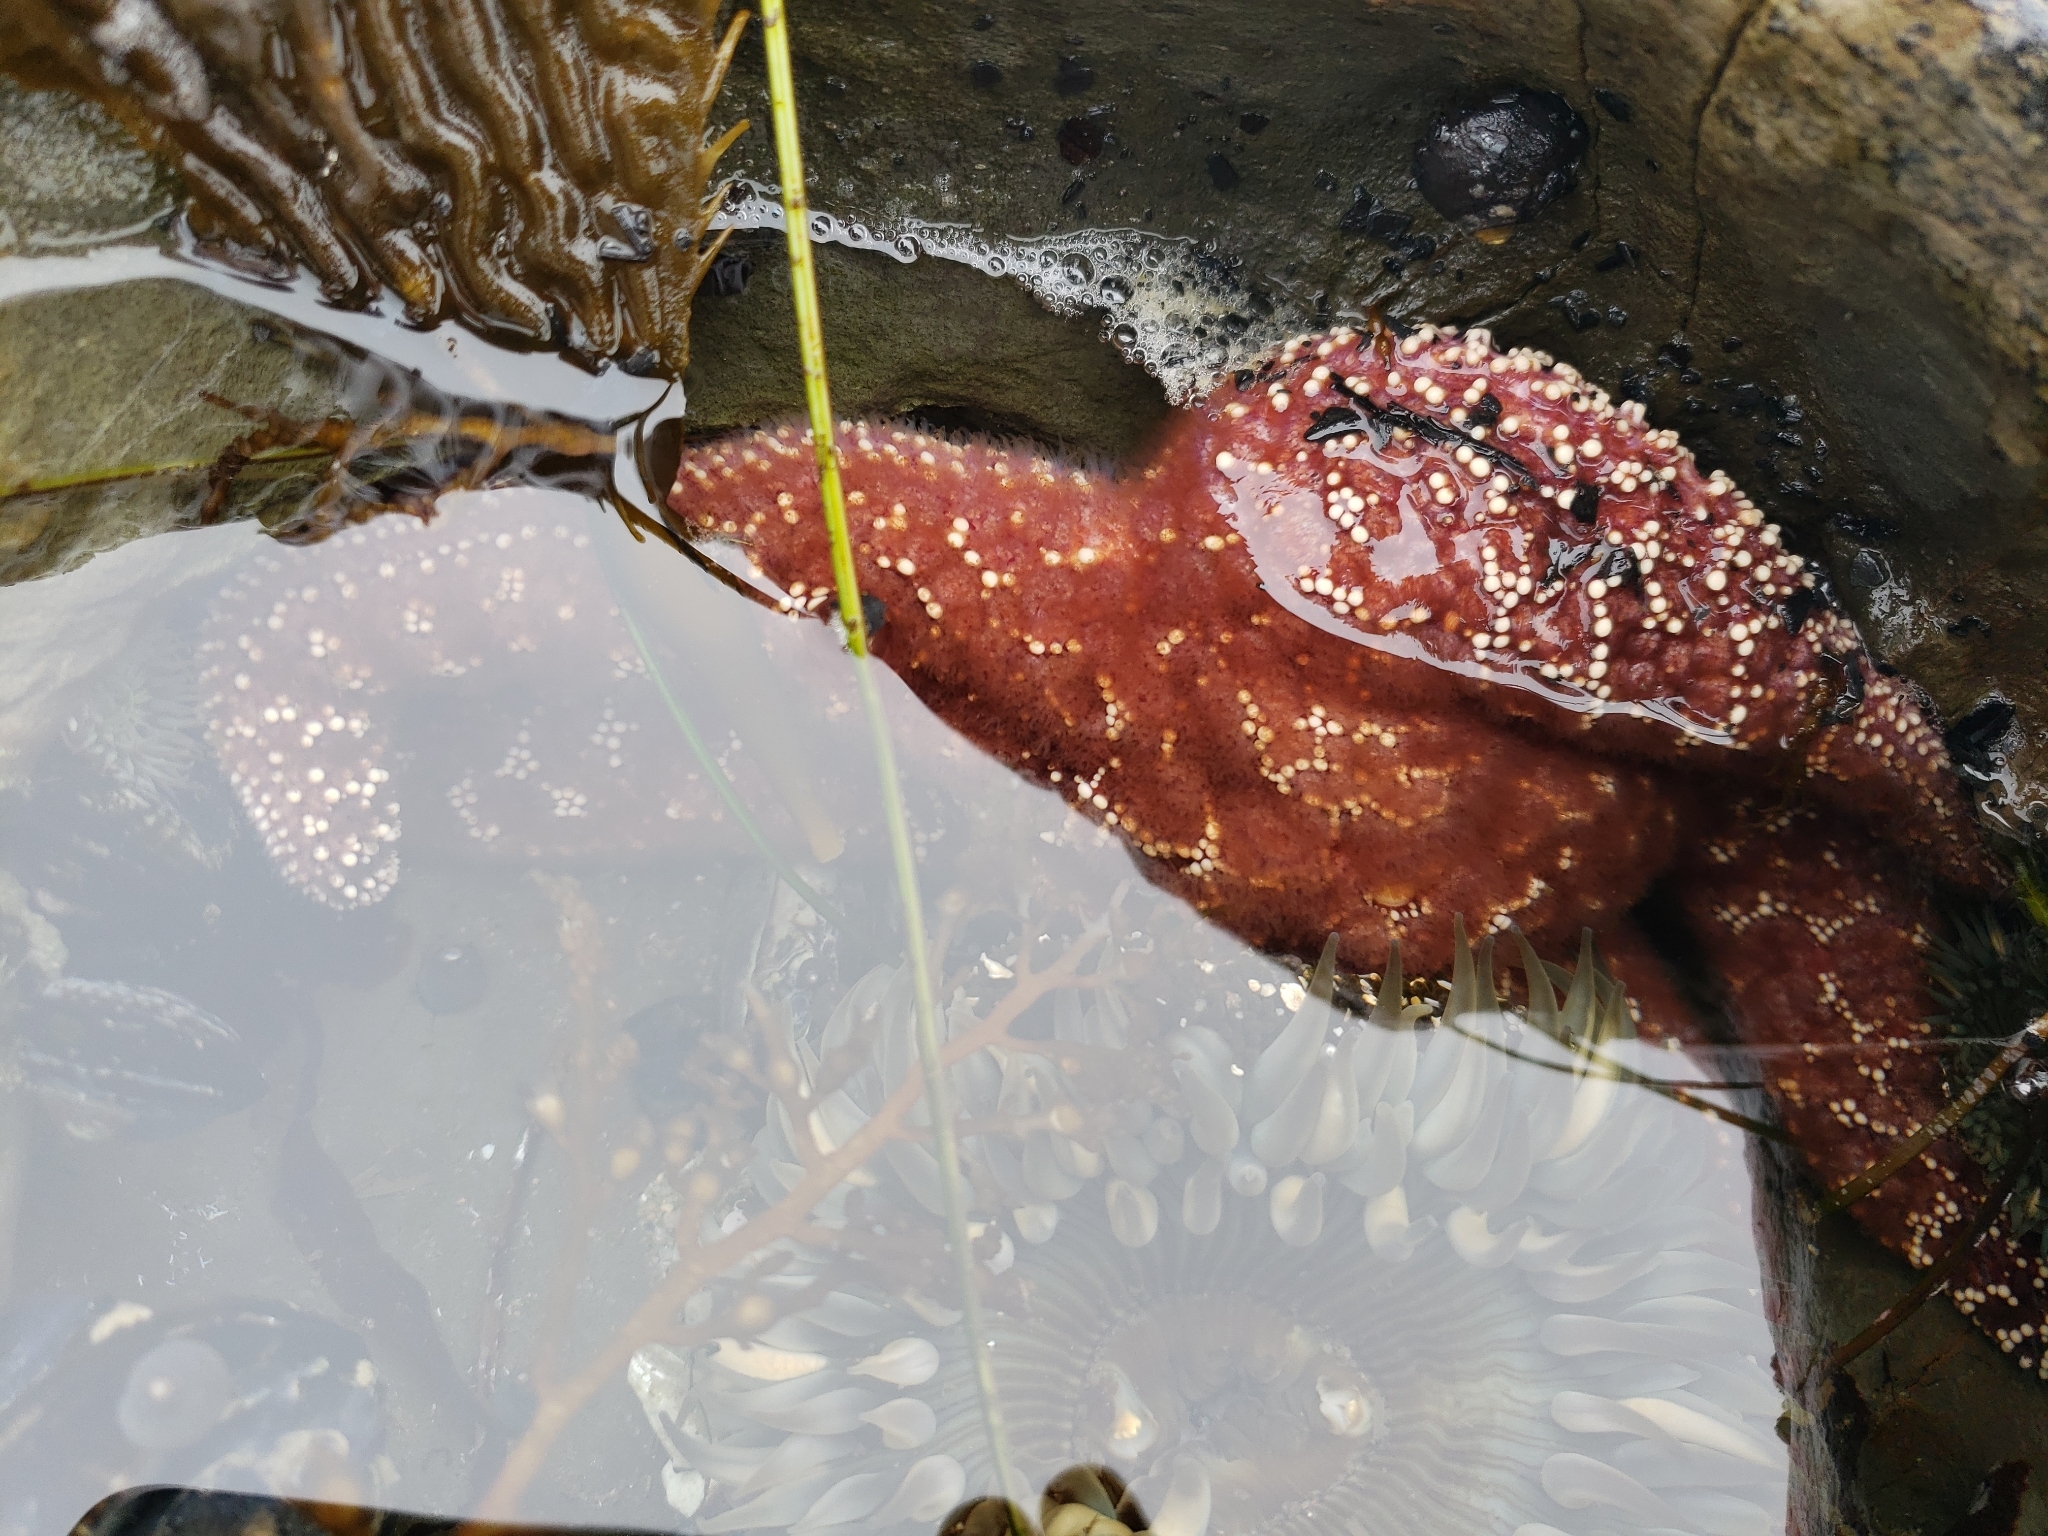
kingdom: Animalia
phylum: Echinodermata
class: Asteroidea
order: Forcipulatida
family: Asteriidae
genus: Pisaster
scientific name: Pisaster ochraceus
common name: Ochre stars
